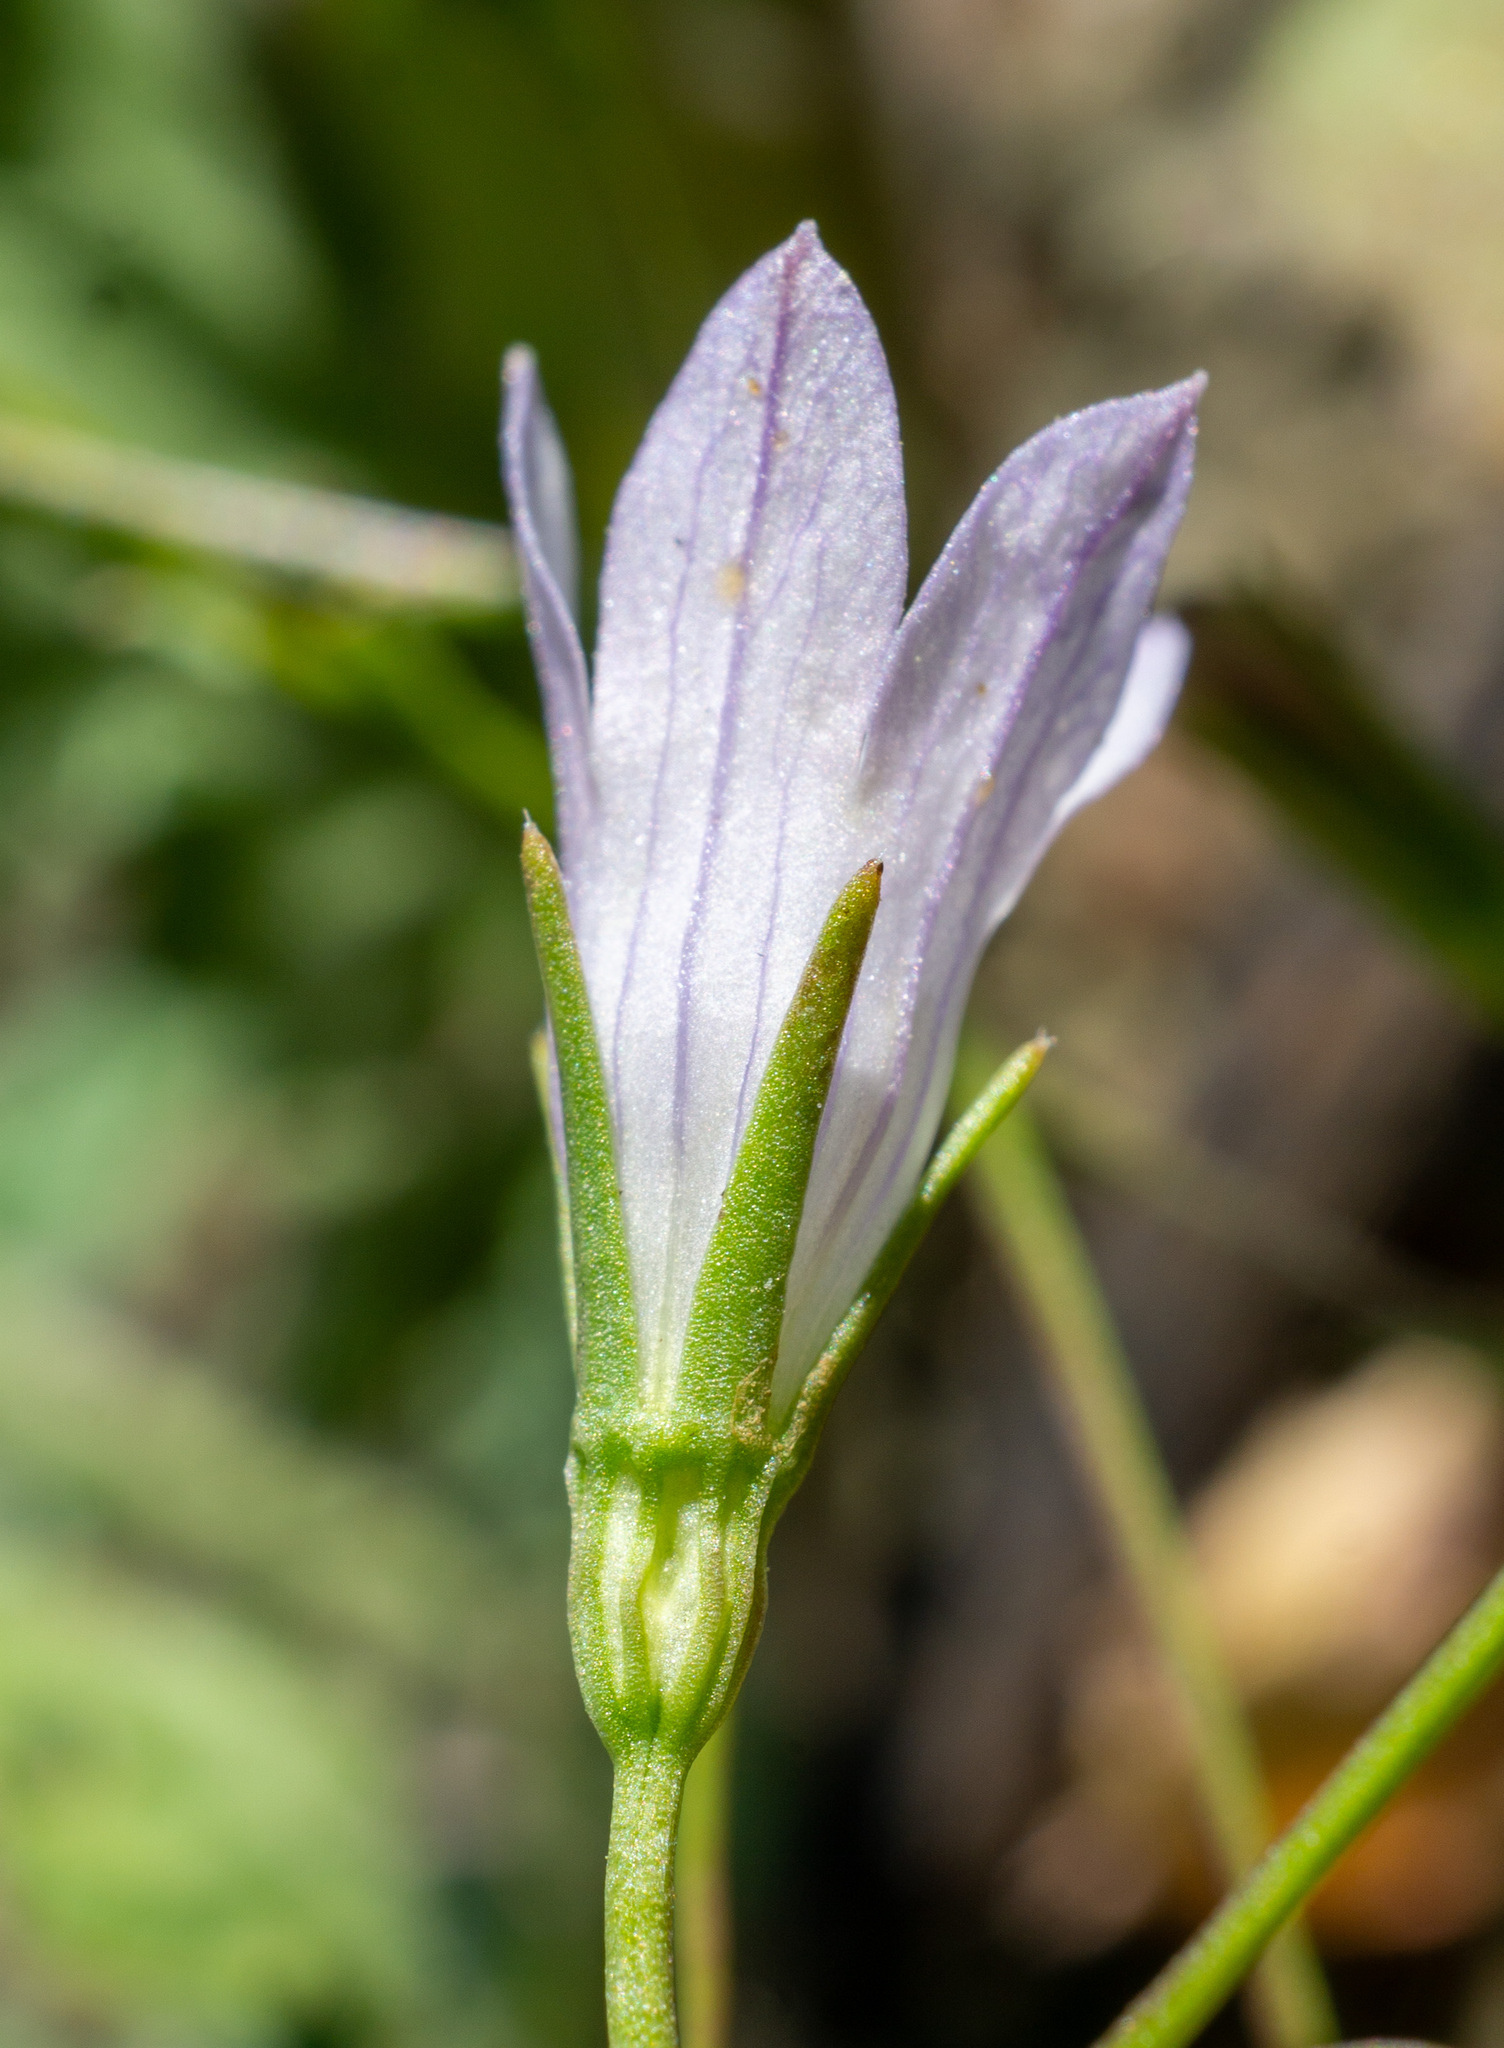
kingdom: Plantae
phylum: Tracheophyta
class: Magnoliopsida
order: Asterales
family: Campanulaceae
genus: Ravenella
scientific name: Ravenella exigua
